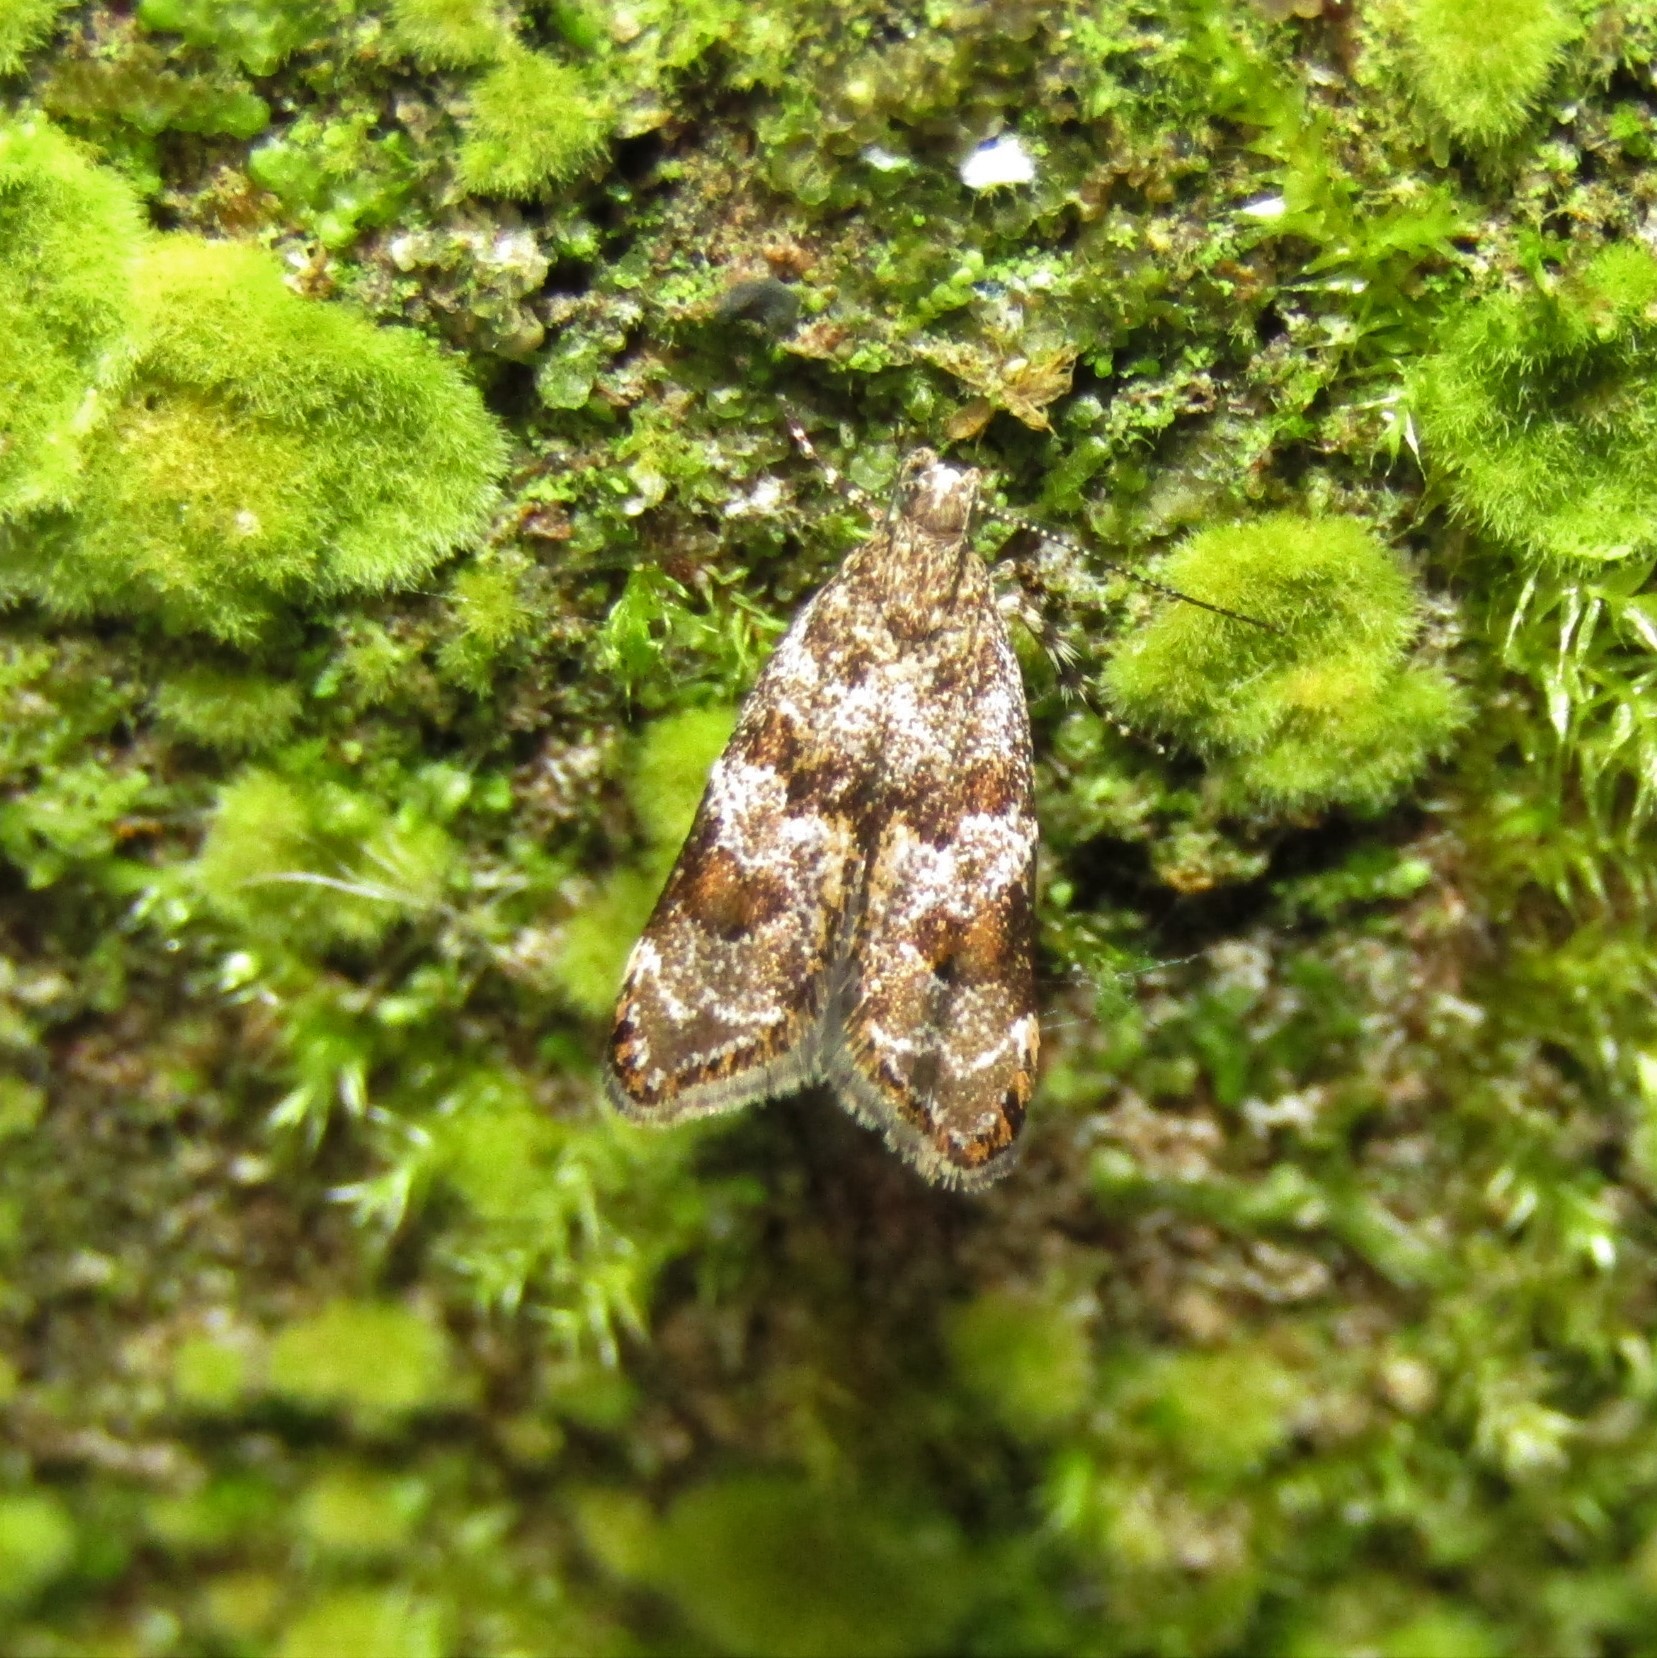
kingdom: Animalia
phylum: Arthropoda
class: Insecta
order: Lepidoptera
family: Oecophoridae
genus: Gymnobathra
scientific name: Gymnobathra omphalota
